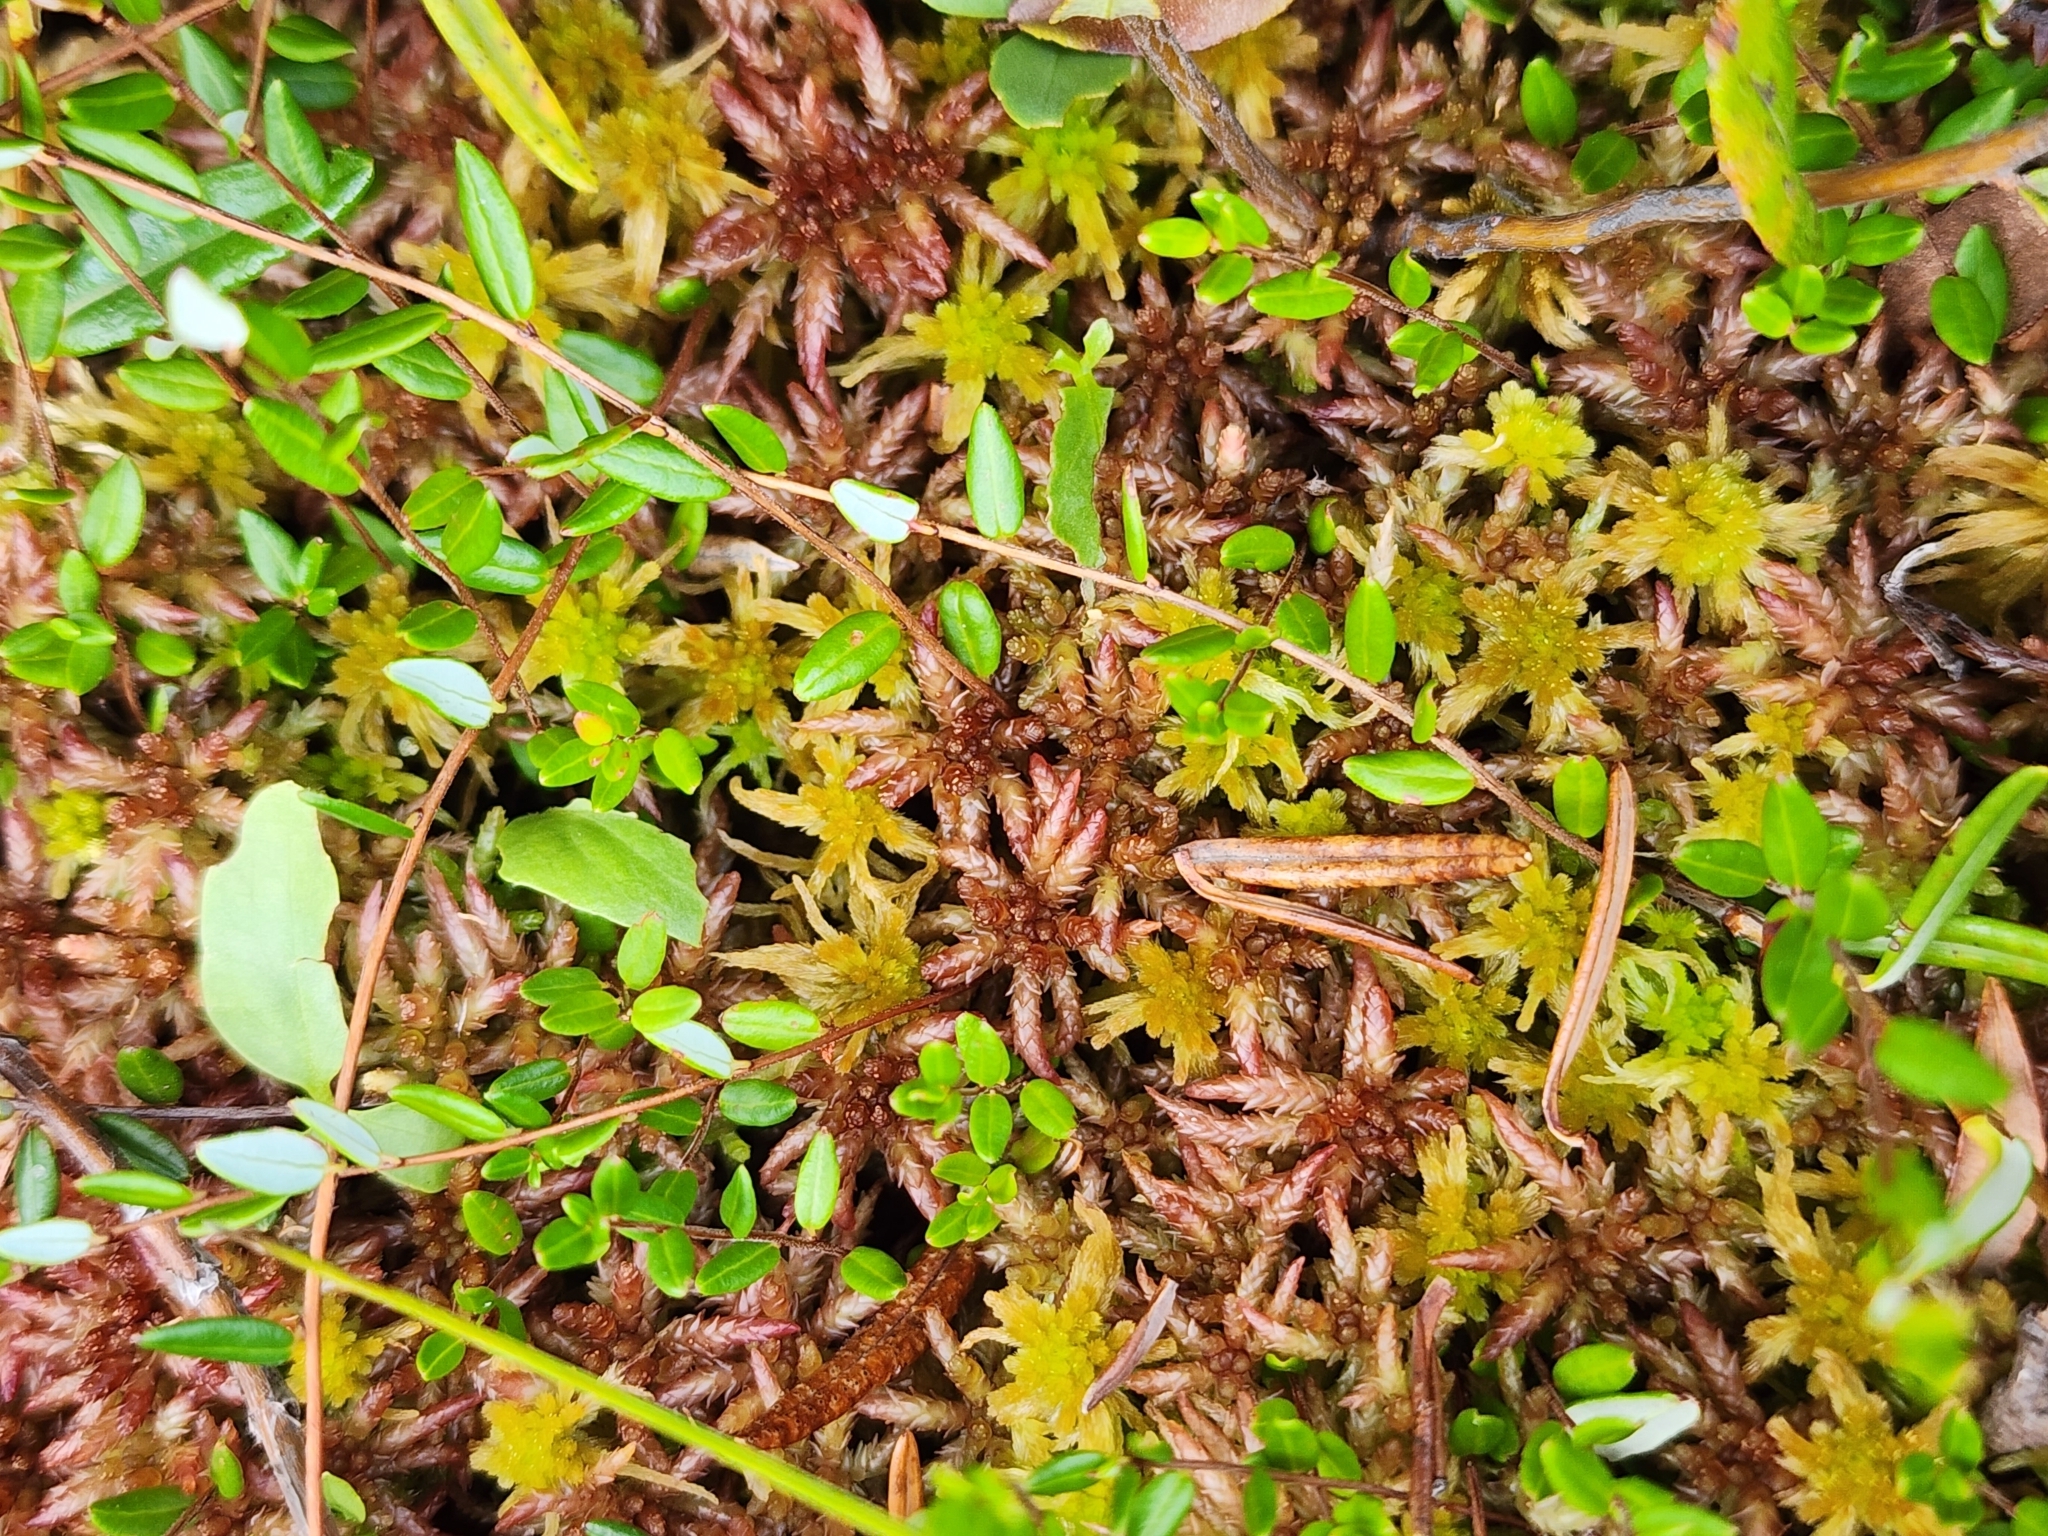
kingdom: Plantae
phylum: Tracheophyta
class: Magnoliopsida
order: Ericales
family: Ericaceae
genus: Vaccinium
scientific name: Vaccinium oxycoccos
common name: Cranberry
